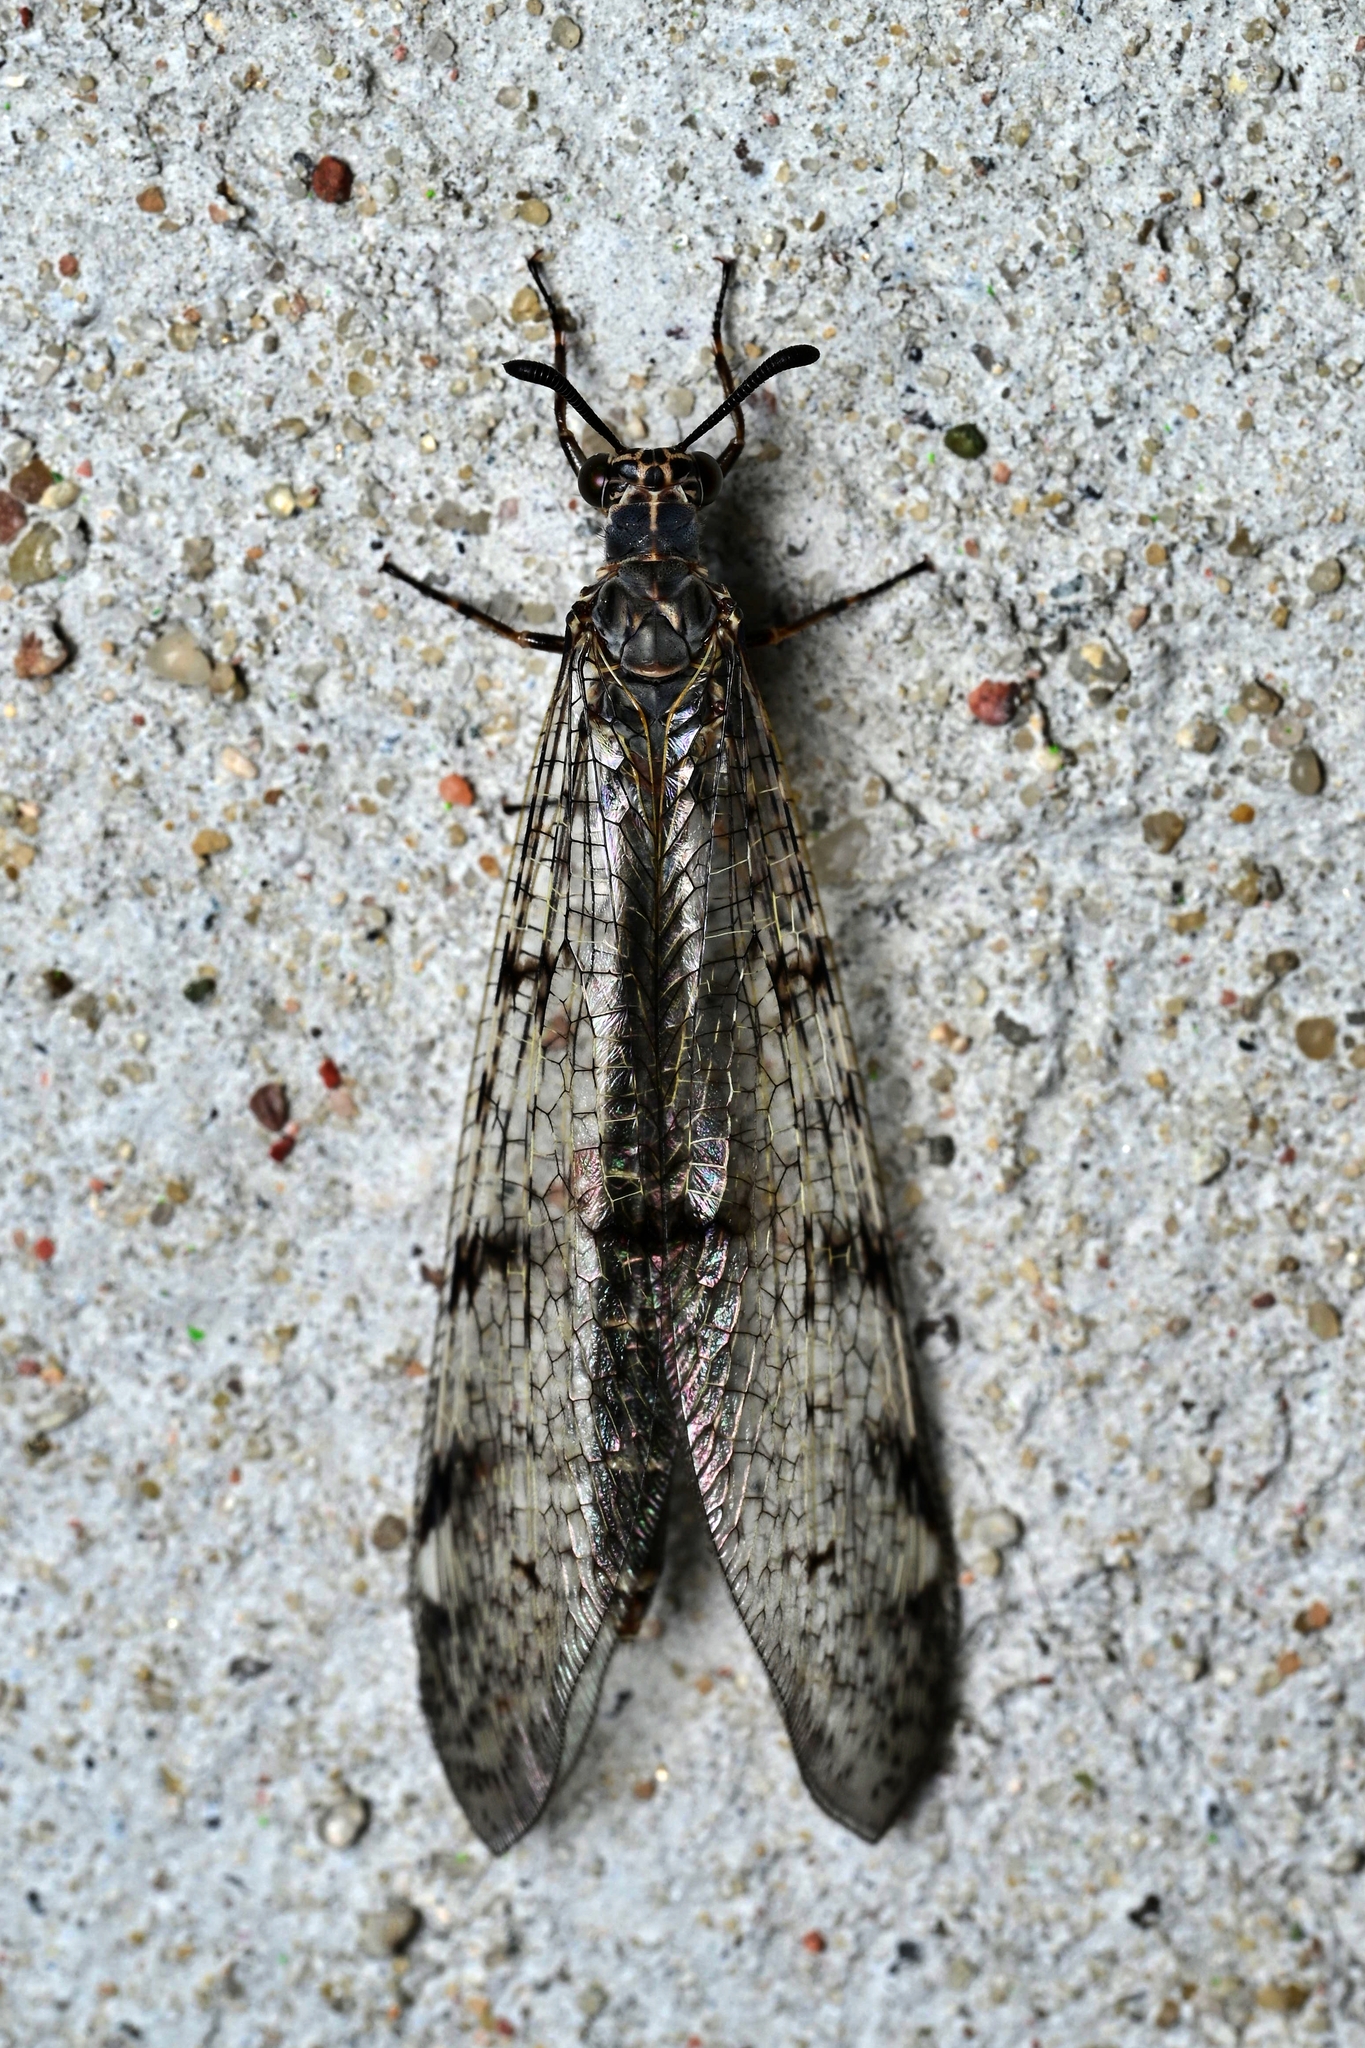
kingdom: Animalia
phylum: Arthropoda
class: Insecta
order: Neuroptera
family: Myrmeleontidae
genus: Euroleon
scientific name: Euroleon nostras
